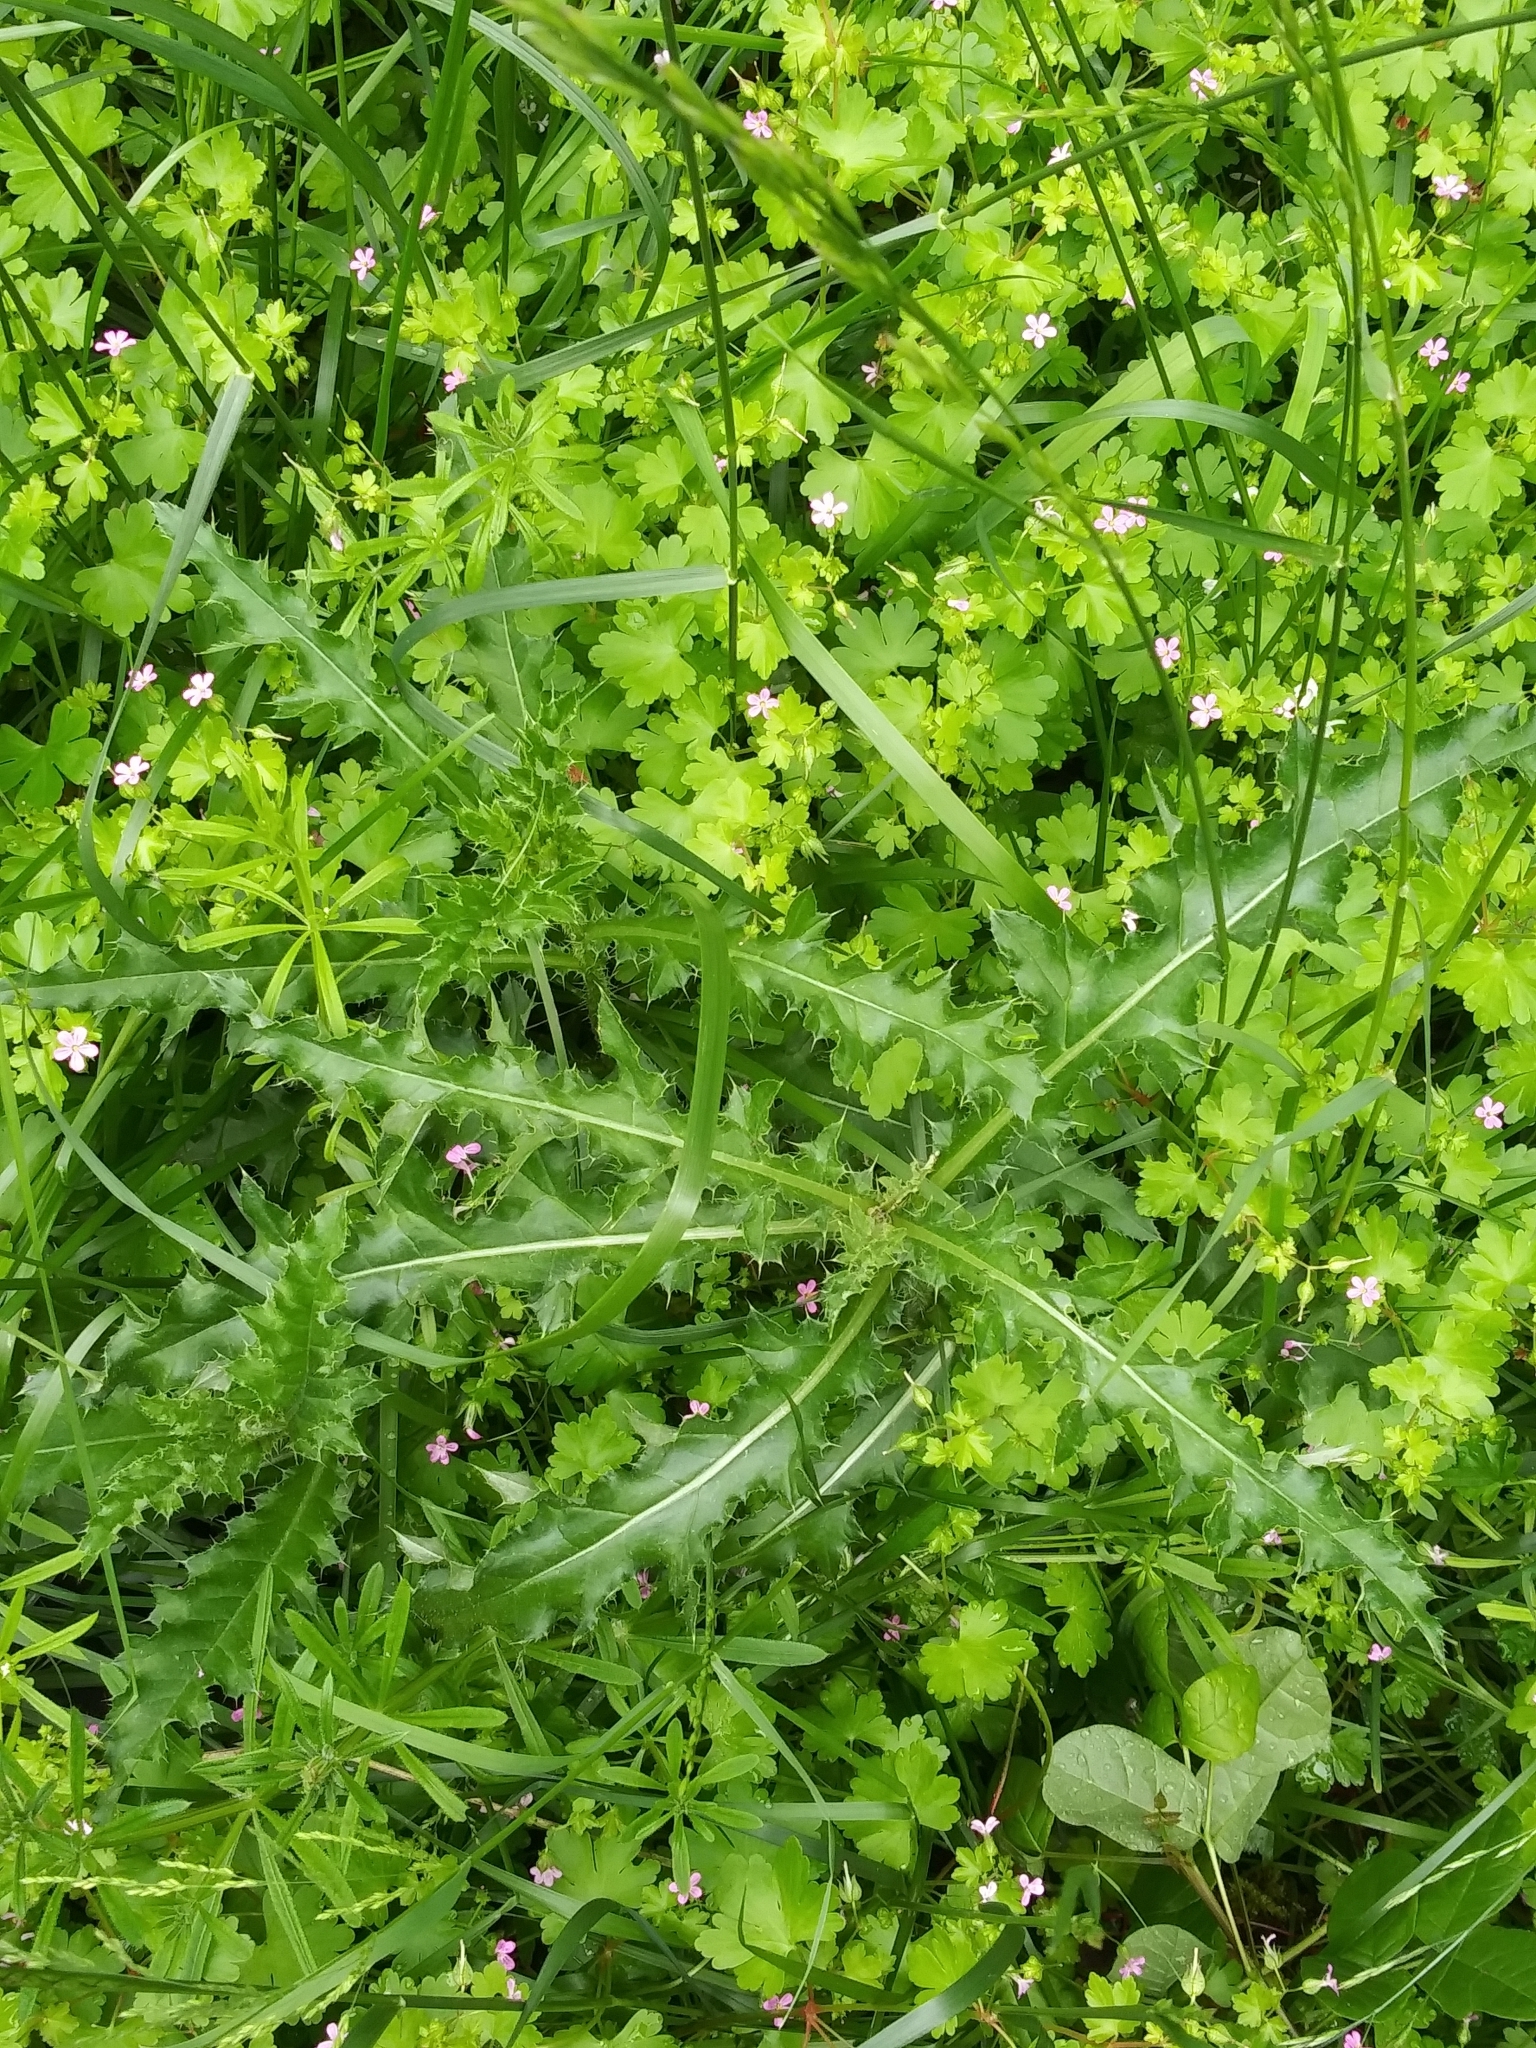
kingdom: Plantae
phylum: Tracheophyta
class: Magnoliopsida
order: Asterales
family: Asteraceae
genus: Cirsium
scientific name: Cirsium arvense
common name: Creeping thistle
